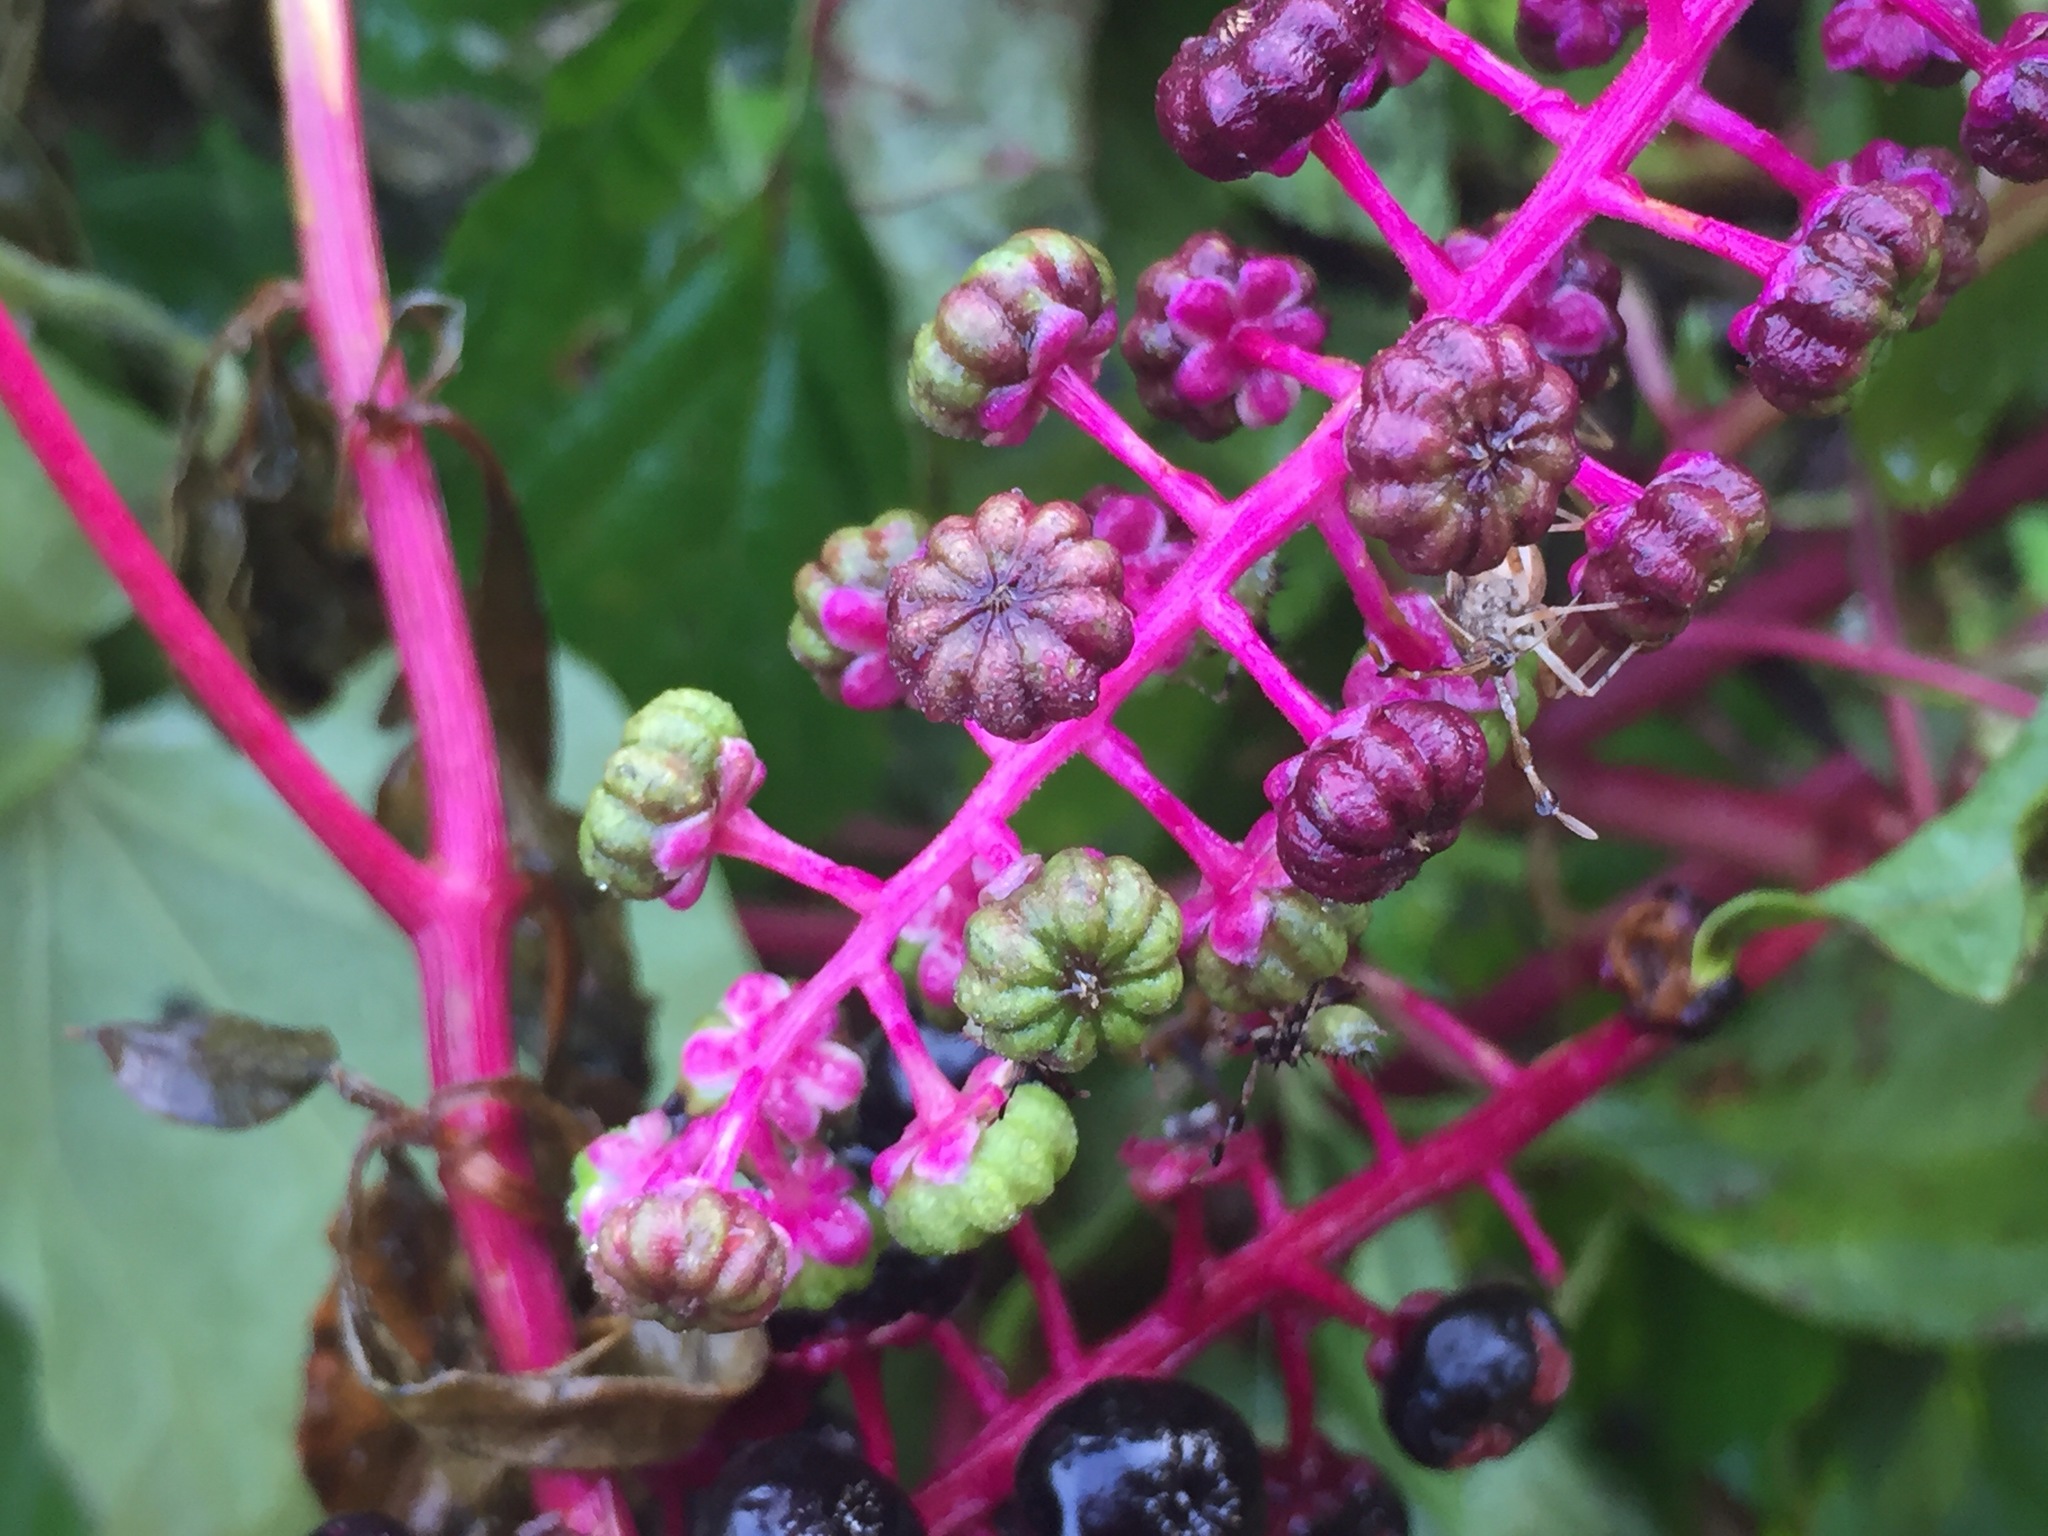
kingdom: Plantae
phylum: Tracheophyta
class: Magnoliopsida
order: Caryophyllales
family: Phytolaccaceae
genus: Phytolacca
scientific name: Phytolacca americana
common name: American pokeweed
